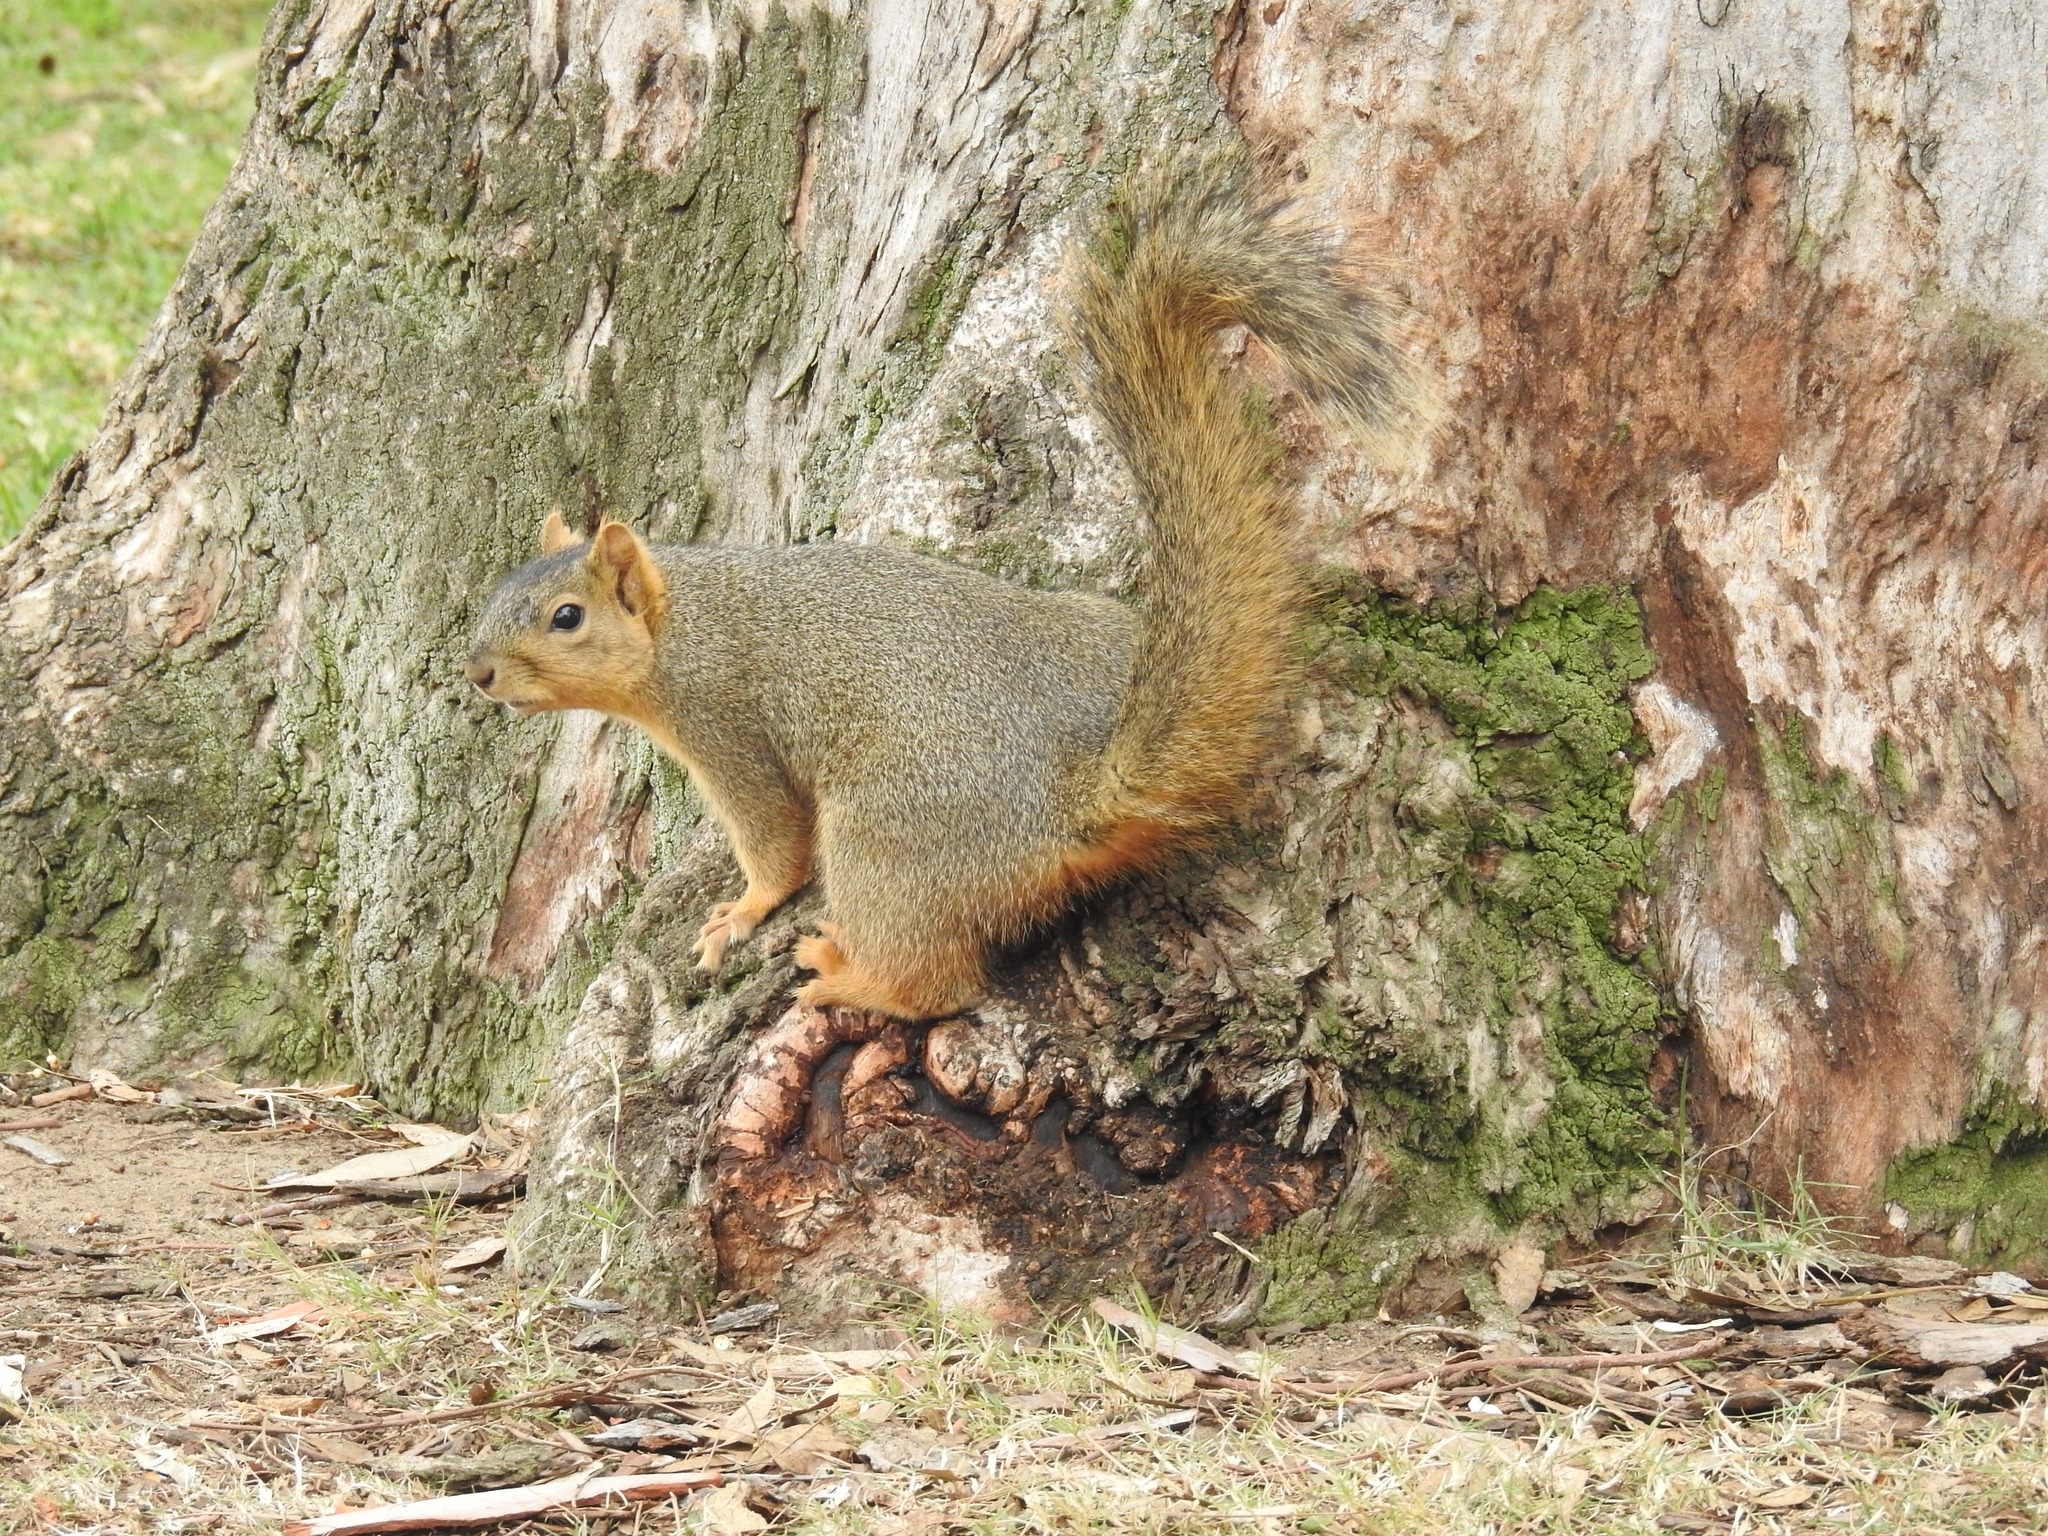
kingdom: Animalia
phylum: Chordata
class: Mammalia
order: Rodentia
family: Sciuridae
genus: Sciurus
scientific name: Sciurus niger
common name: Fox squirrel
